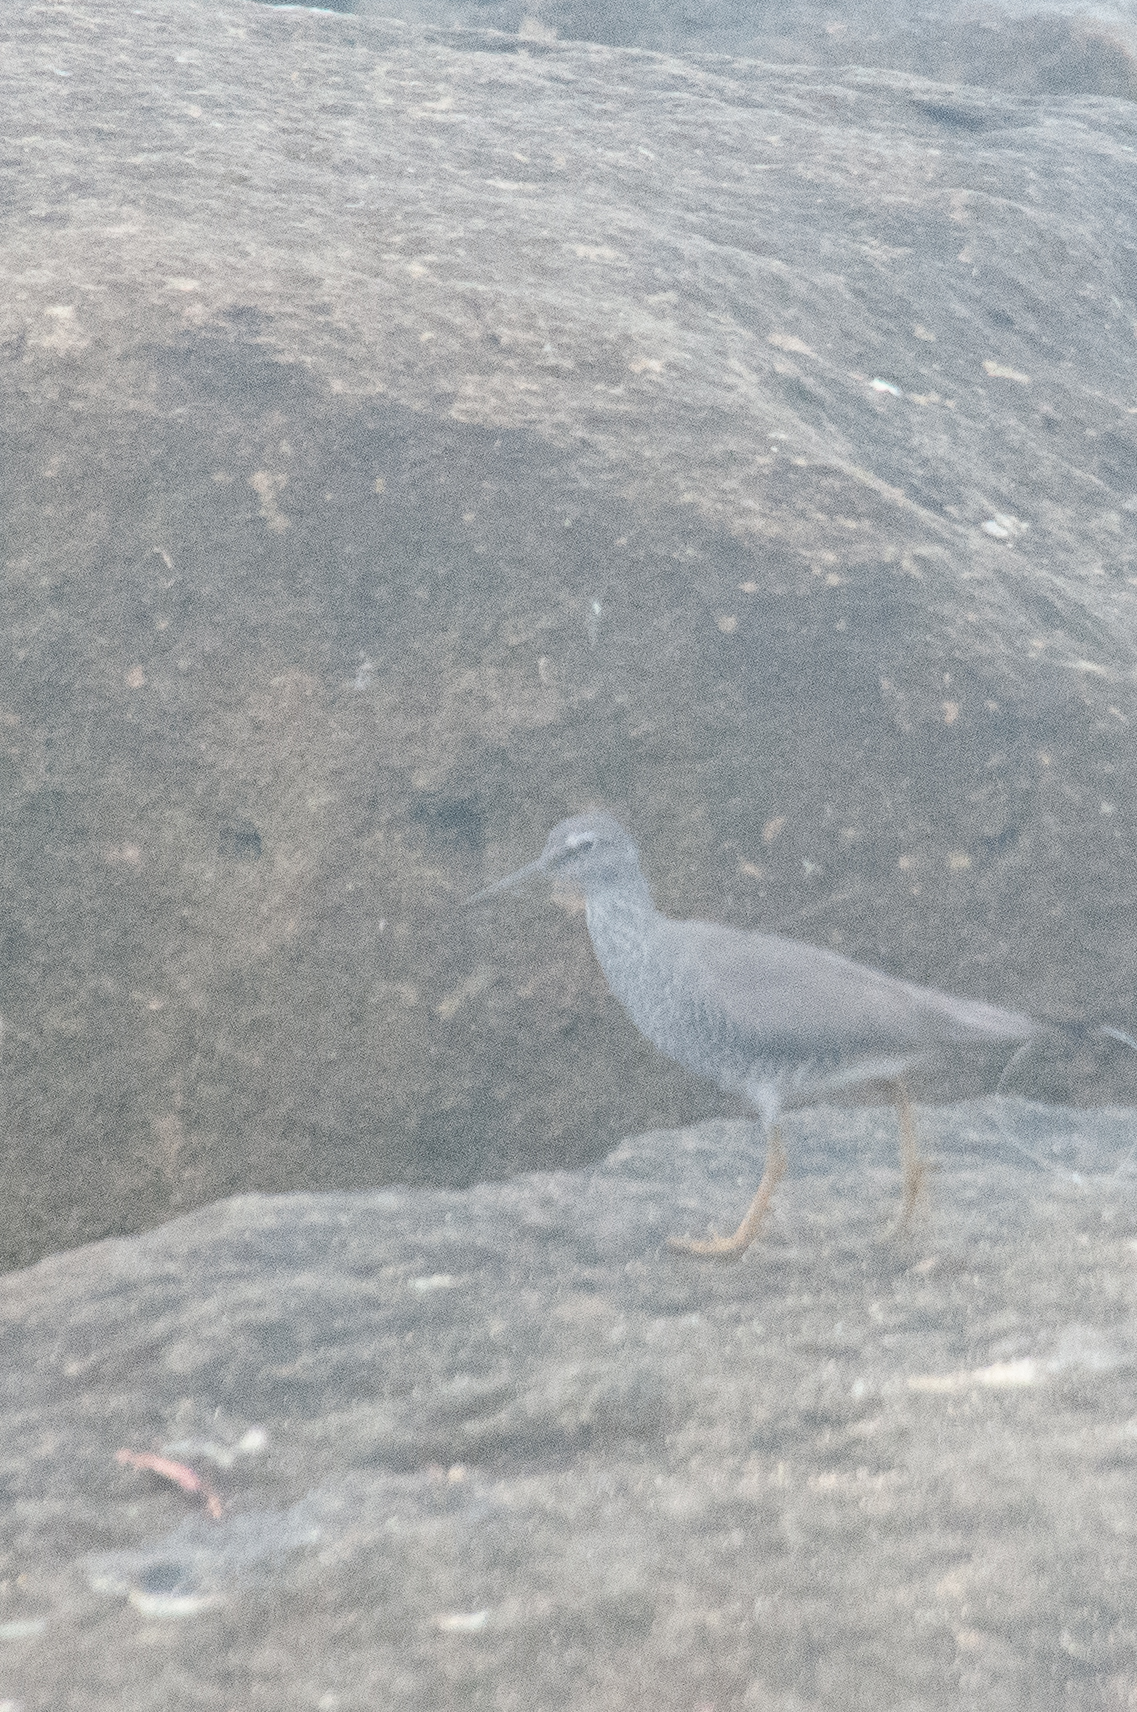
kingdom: Animalia
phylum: Chordata
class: Aves
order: Charadriiformes
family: Scolopacidae
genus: Tringa
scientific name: Tringa incana
